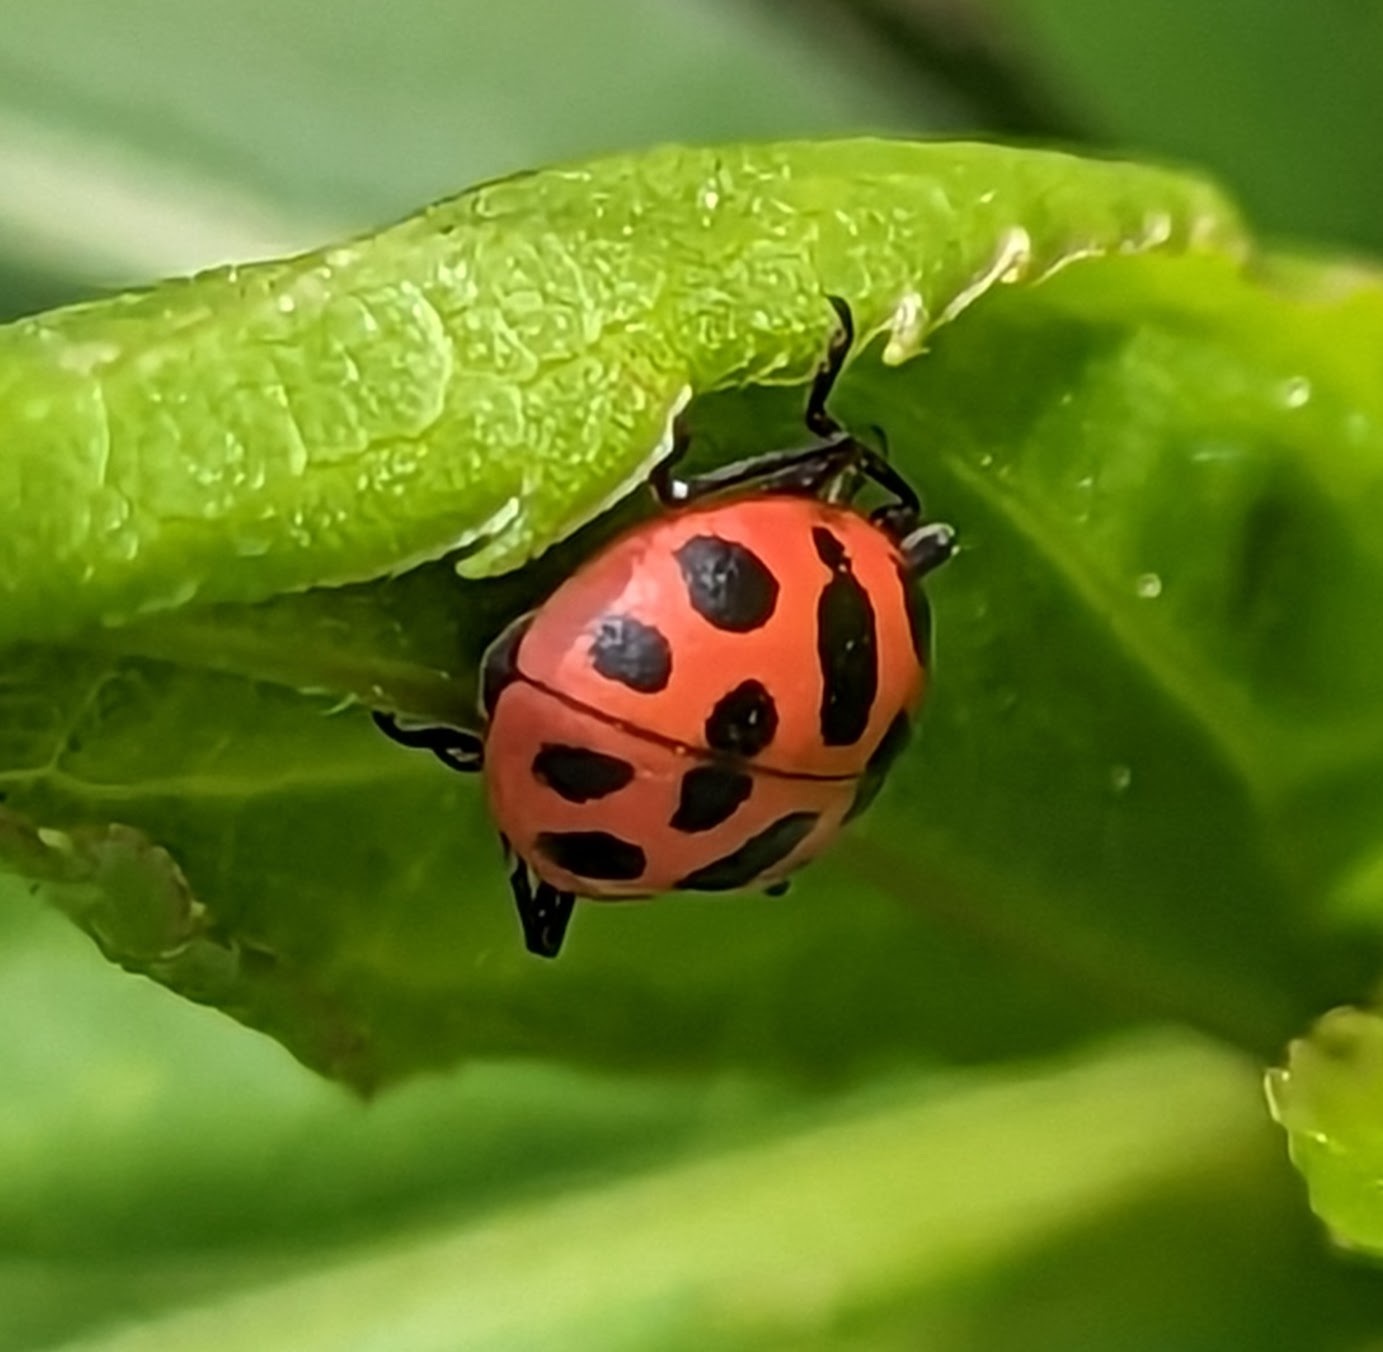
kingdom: Animalia
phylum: Arthropoda
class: Insecta
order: Coleoptera
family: Coccinellidae
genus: Coleomegilla
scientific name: Coleomegilla maculata
